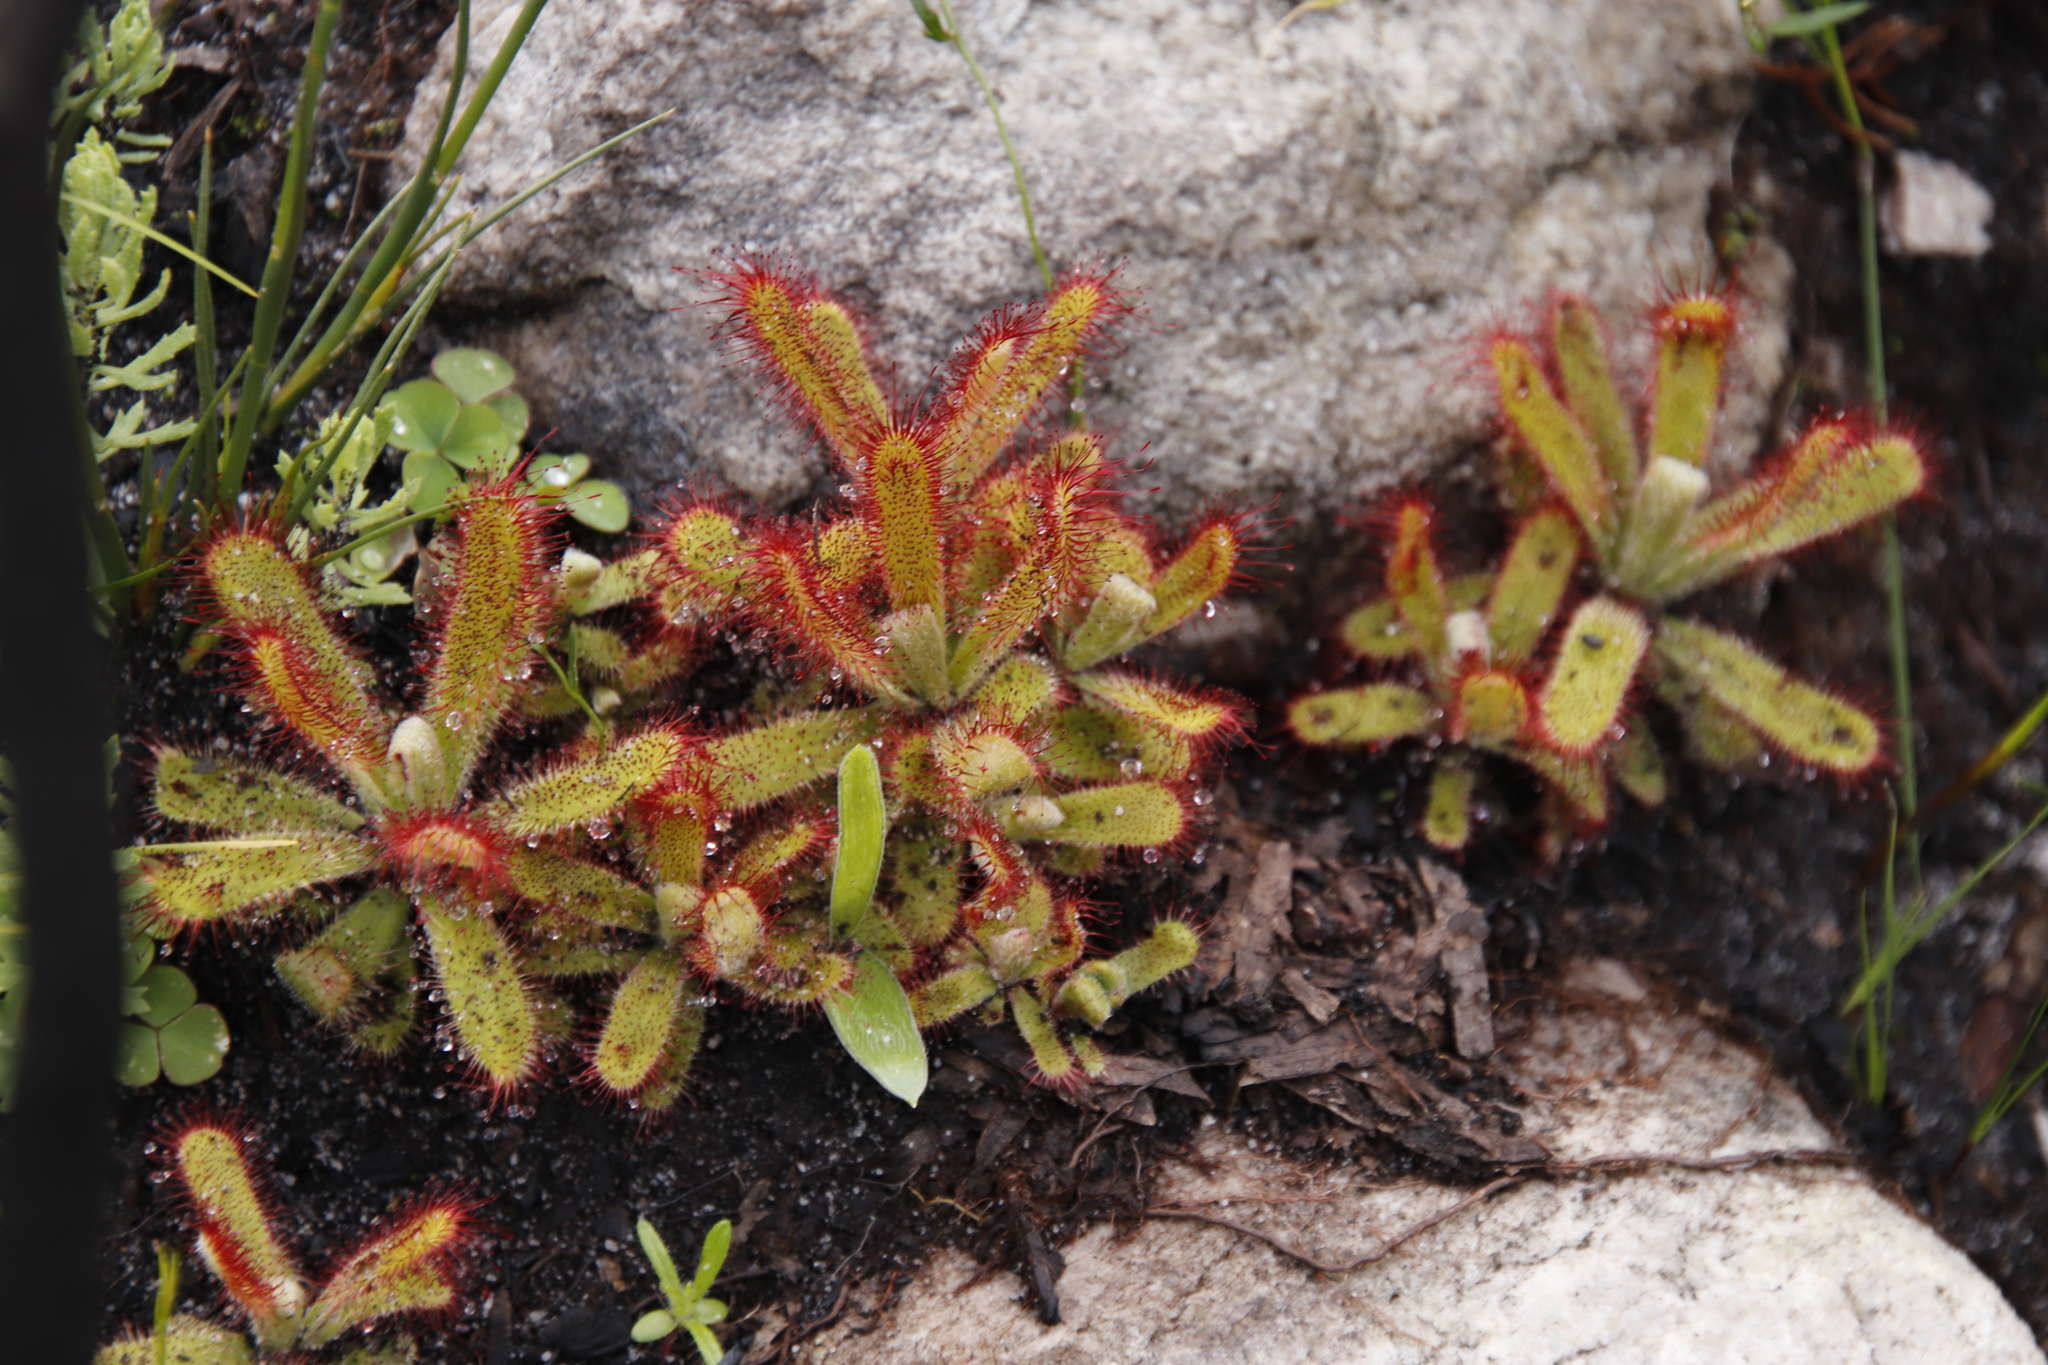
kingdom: Plantae
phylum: Tracheophyta
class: Magnoliopsida
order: Caryophyllales
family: Droseraceae
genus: Drosera
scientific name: Drosera ericgreenii
